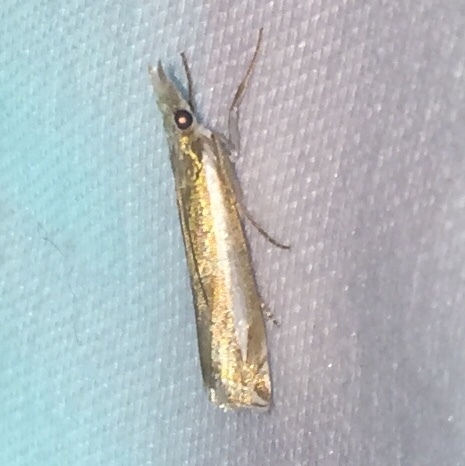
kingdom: Animalia
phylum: Arthropoda
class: Insecta
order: Lepidoptera
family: Crambidae
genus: Crambus
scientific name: Crambus praefectellus
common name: Common grass-veneer
